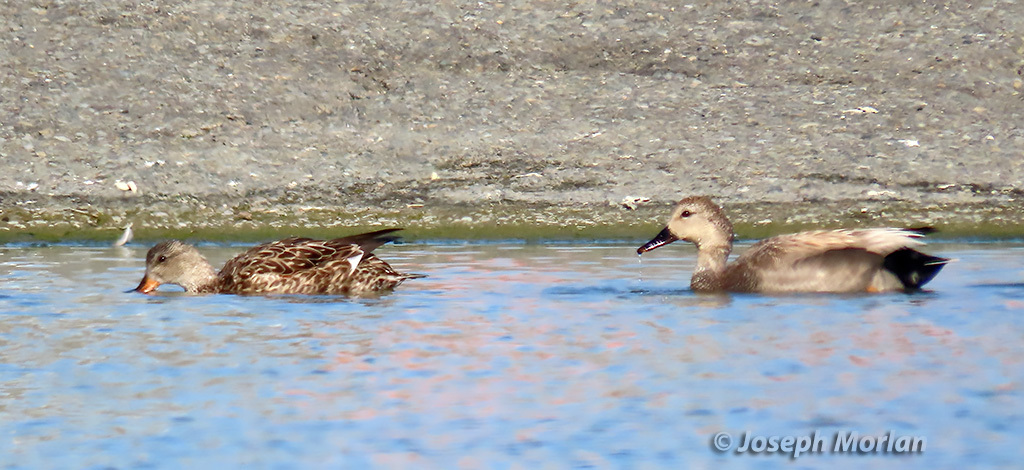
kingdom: Animalia
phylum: Chordata
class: Aves
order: Anseriformes
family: Anatidae
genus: Mareca
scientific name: Mareca strepera
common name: Gadwall
